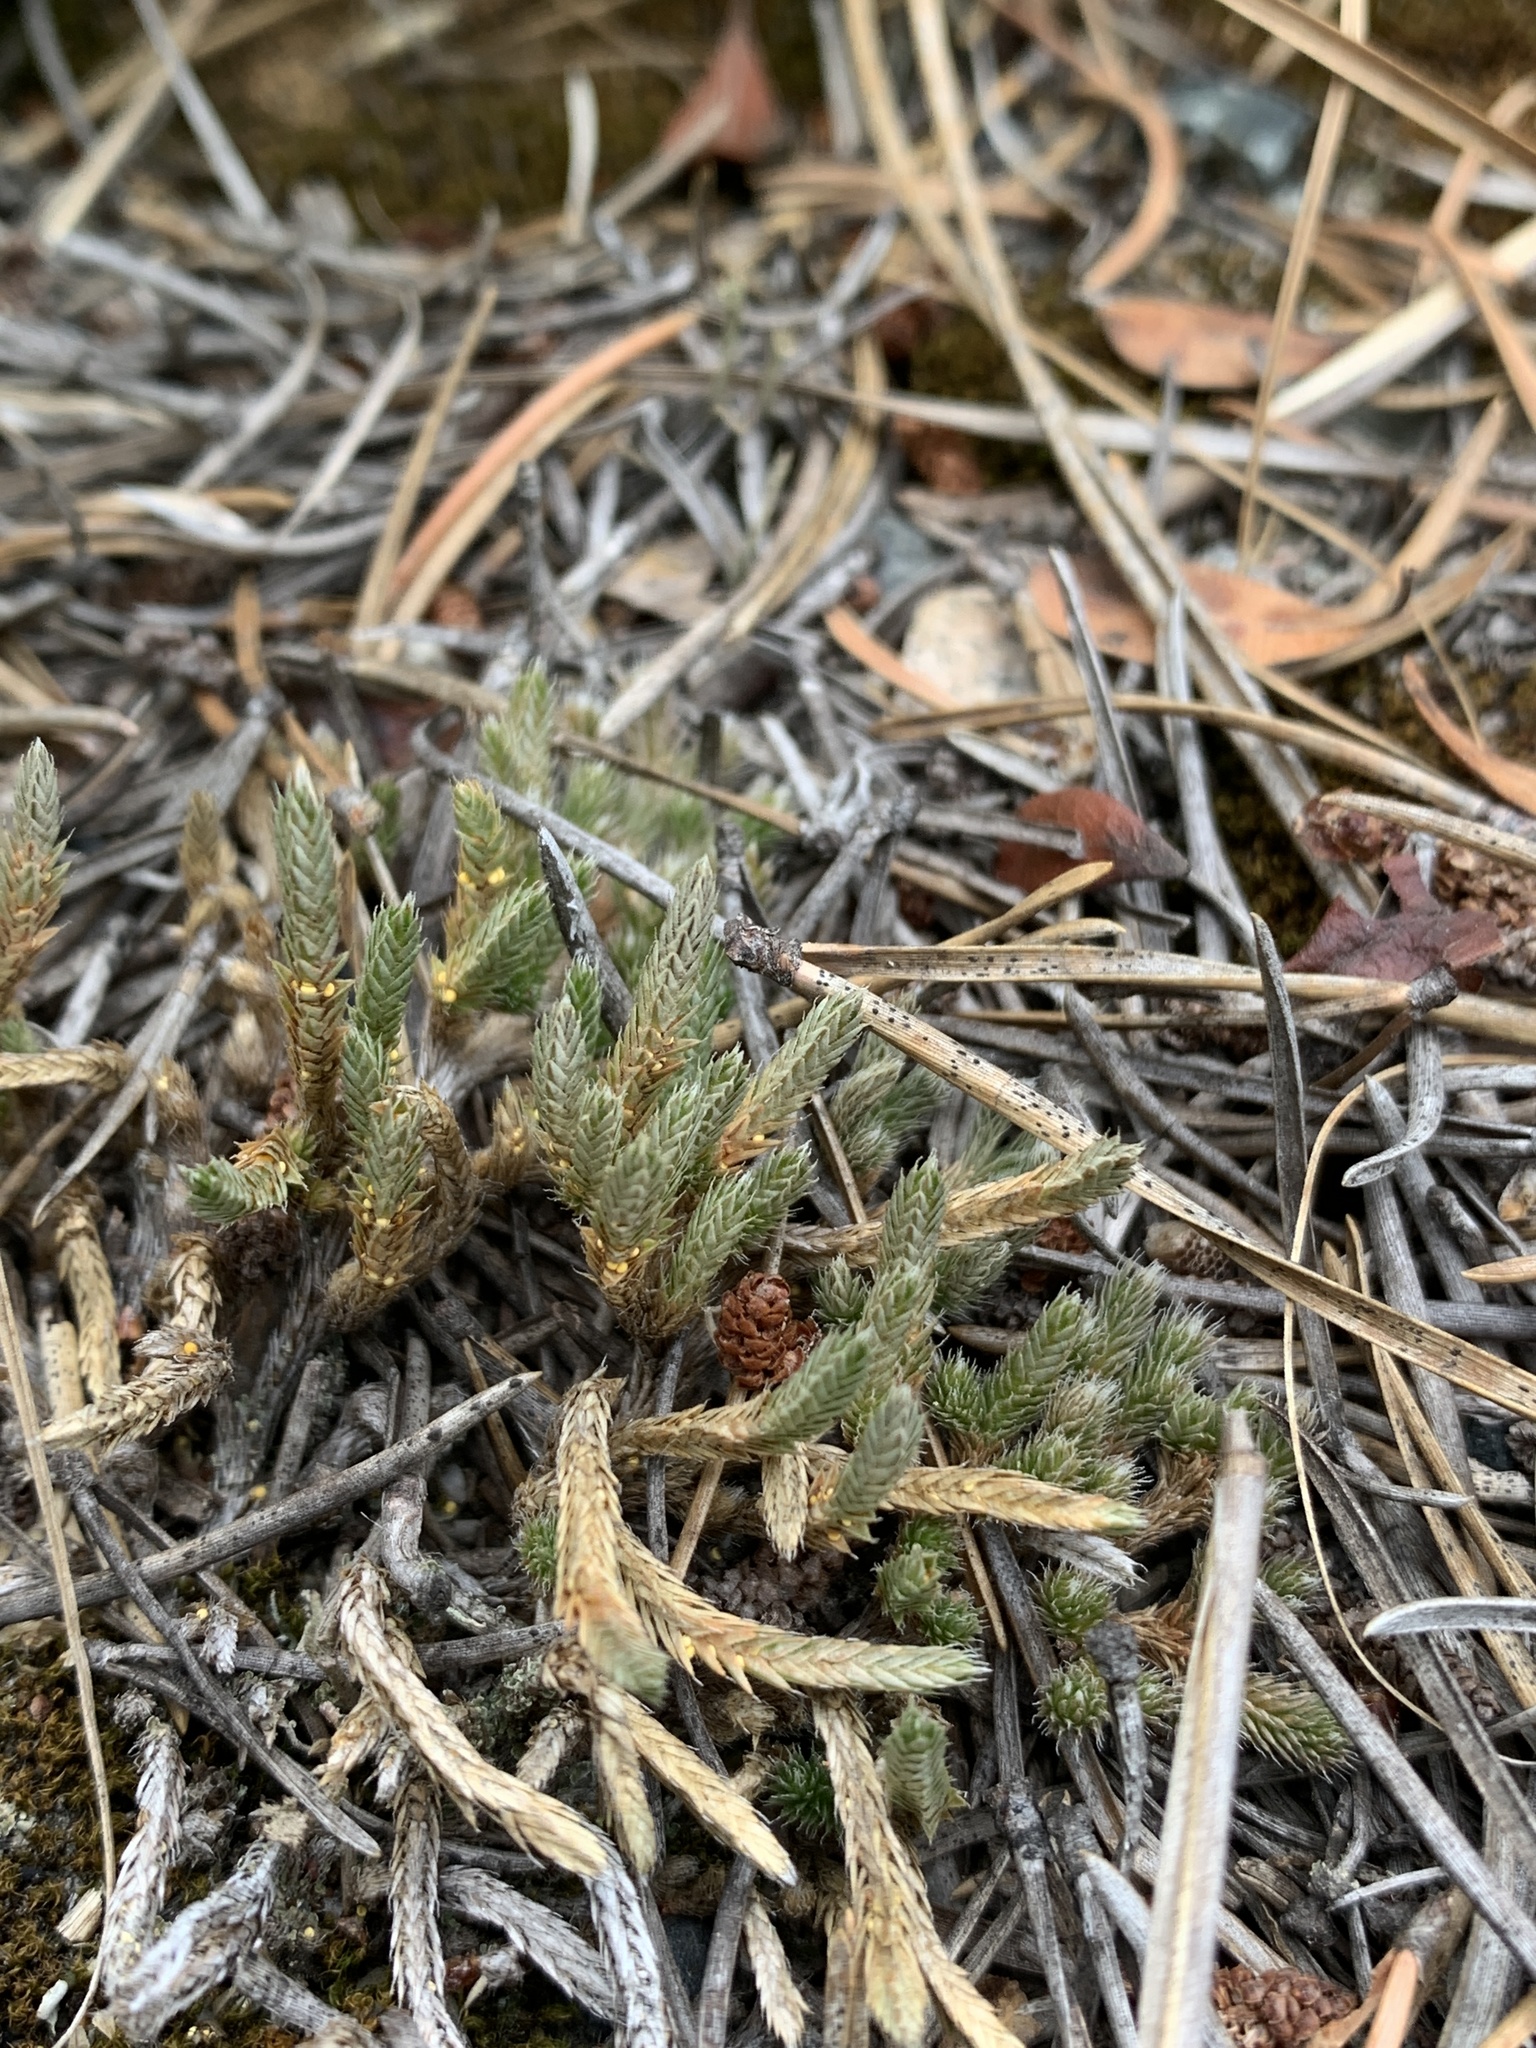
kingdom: Plantae
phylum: Tracheophyta
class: Lycopodiopsida
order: Selaginellales
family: Selaginellaceae
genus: Selaginella
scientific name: Selaginella rupestris
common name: Dwarf spikemoss
